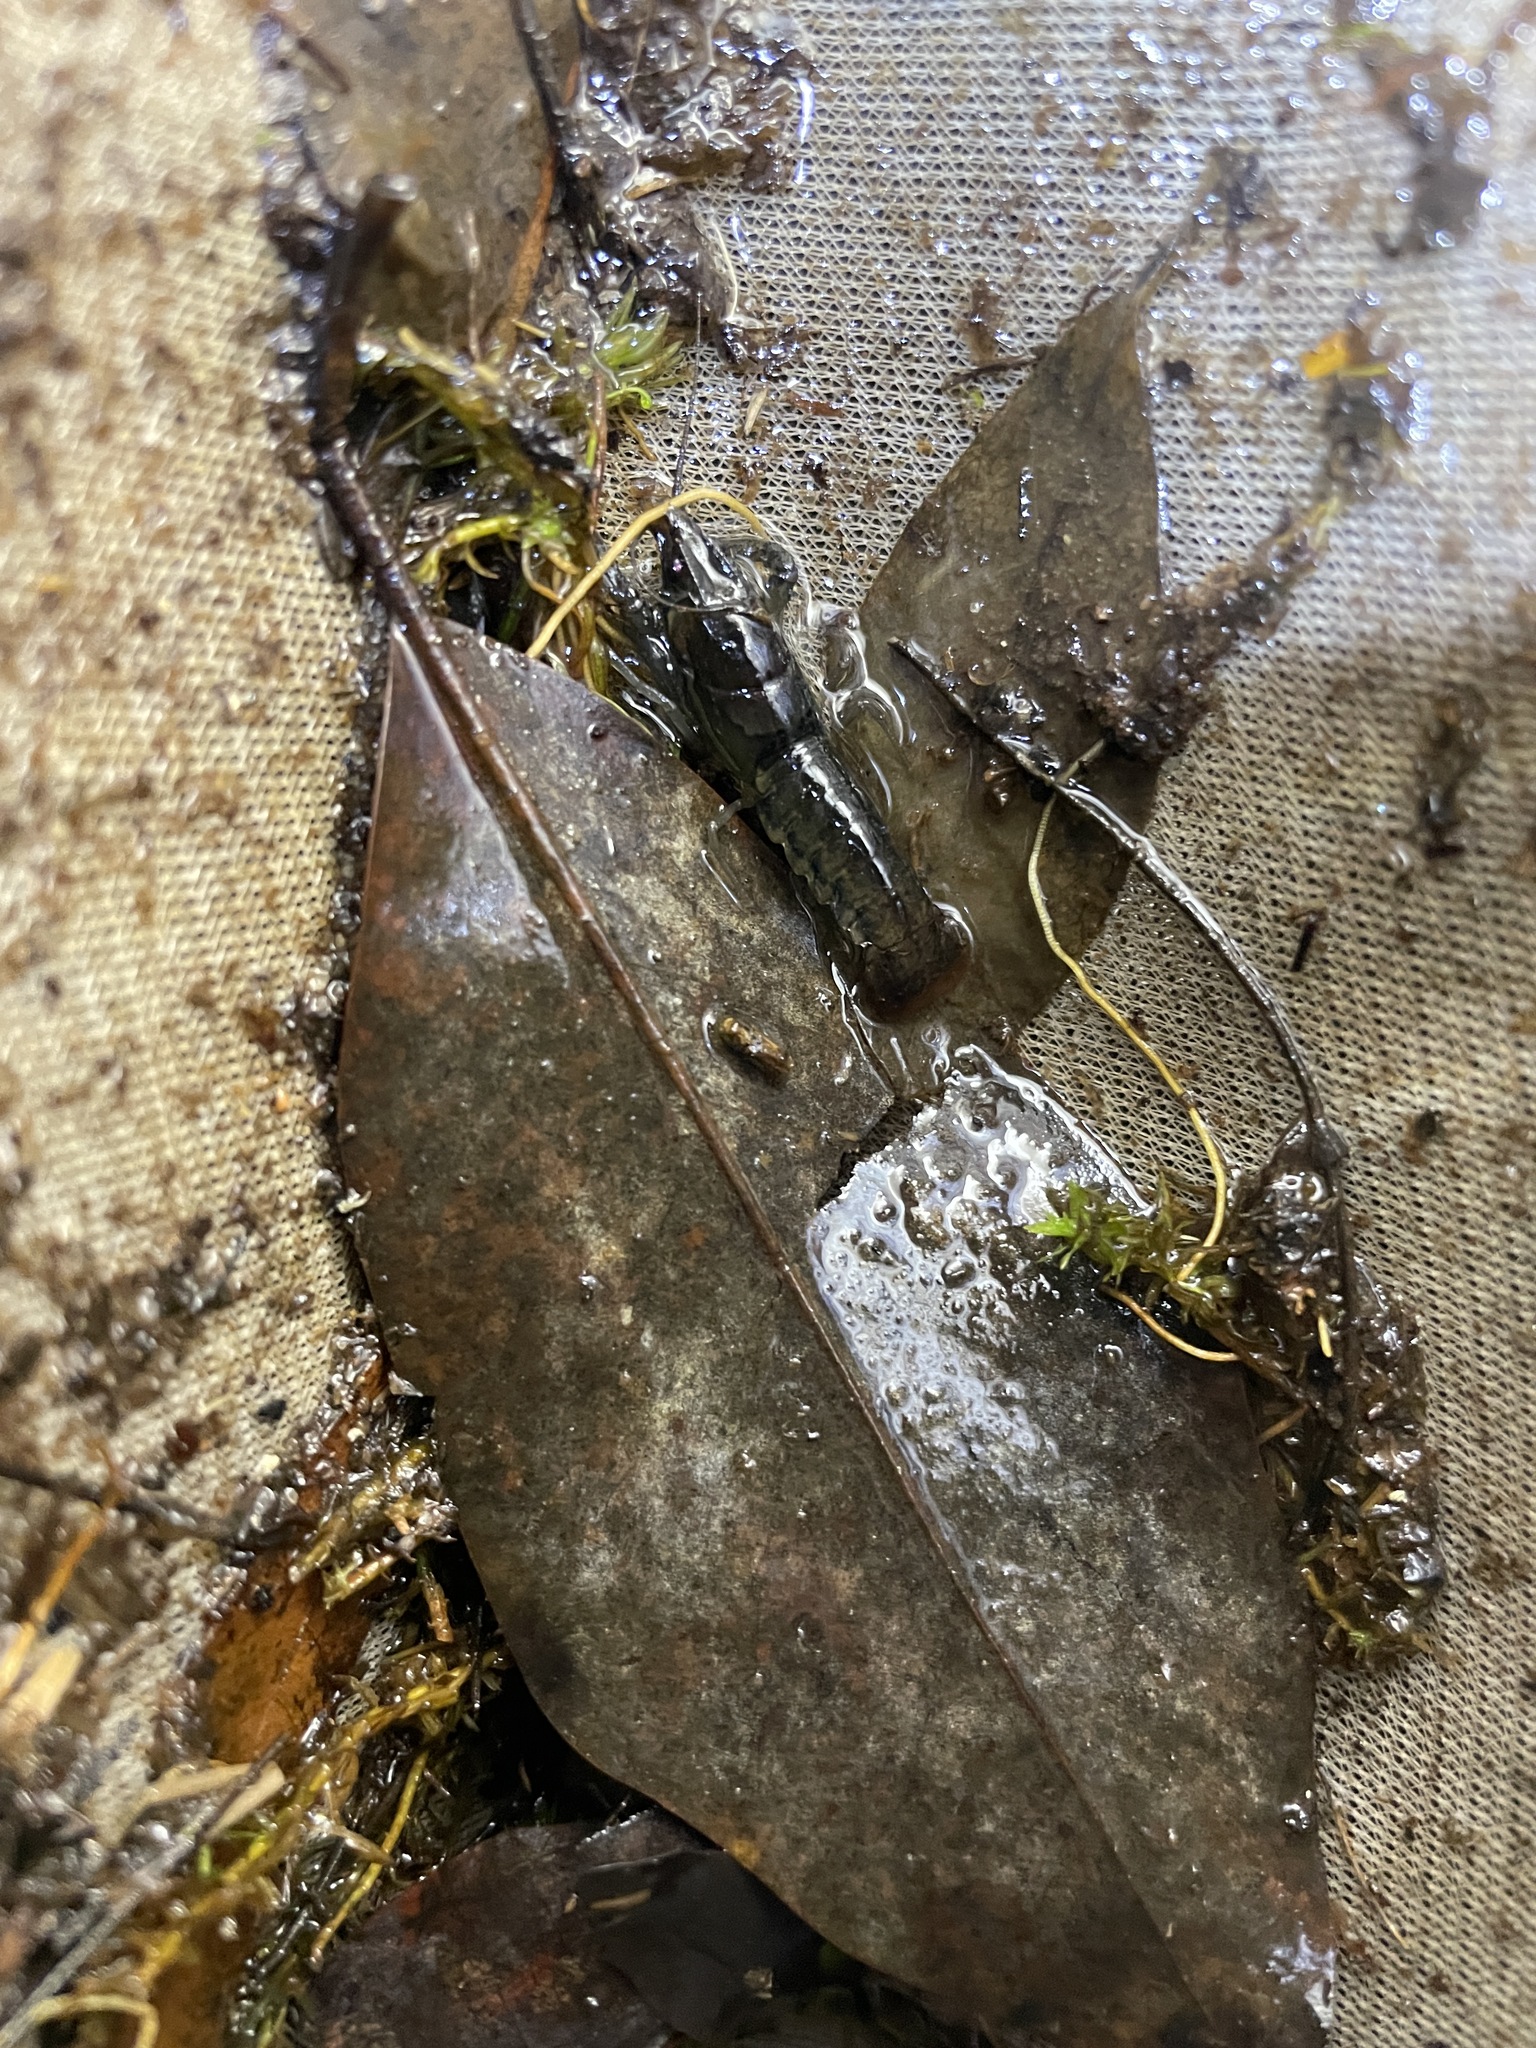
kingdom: Animalia
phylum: Arthropoda
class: Malacostraca
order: Decapoda
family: Cambaridae
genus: Procambarus
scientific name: Procambarus versutus
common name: Sly crayfish
